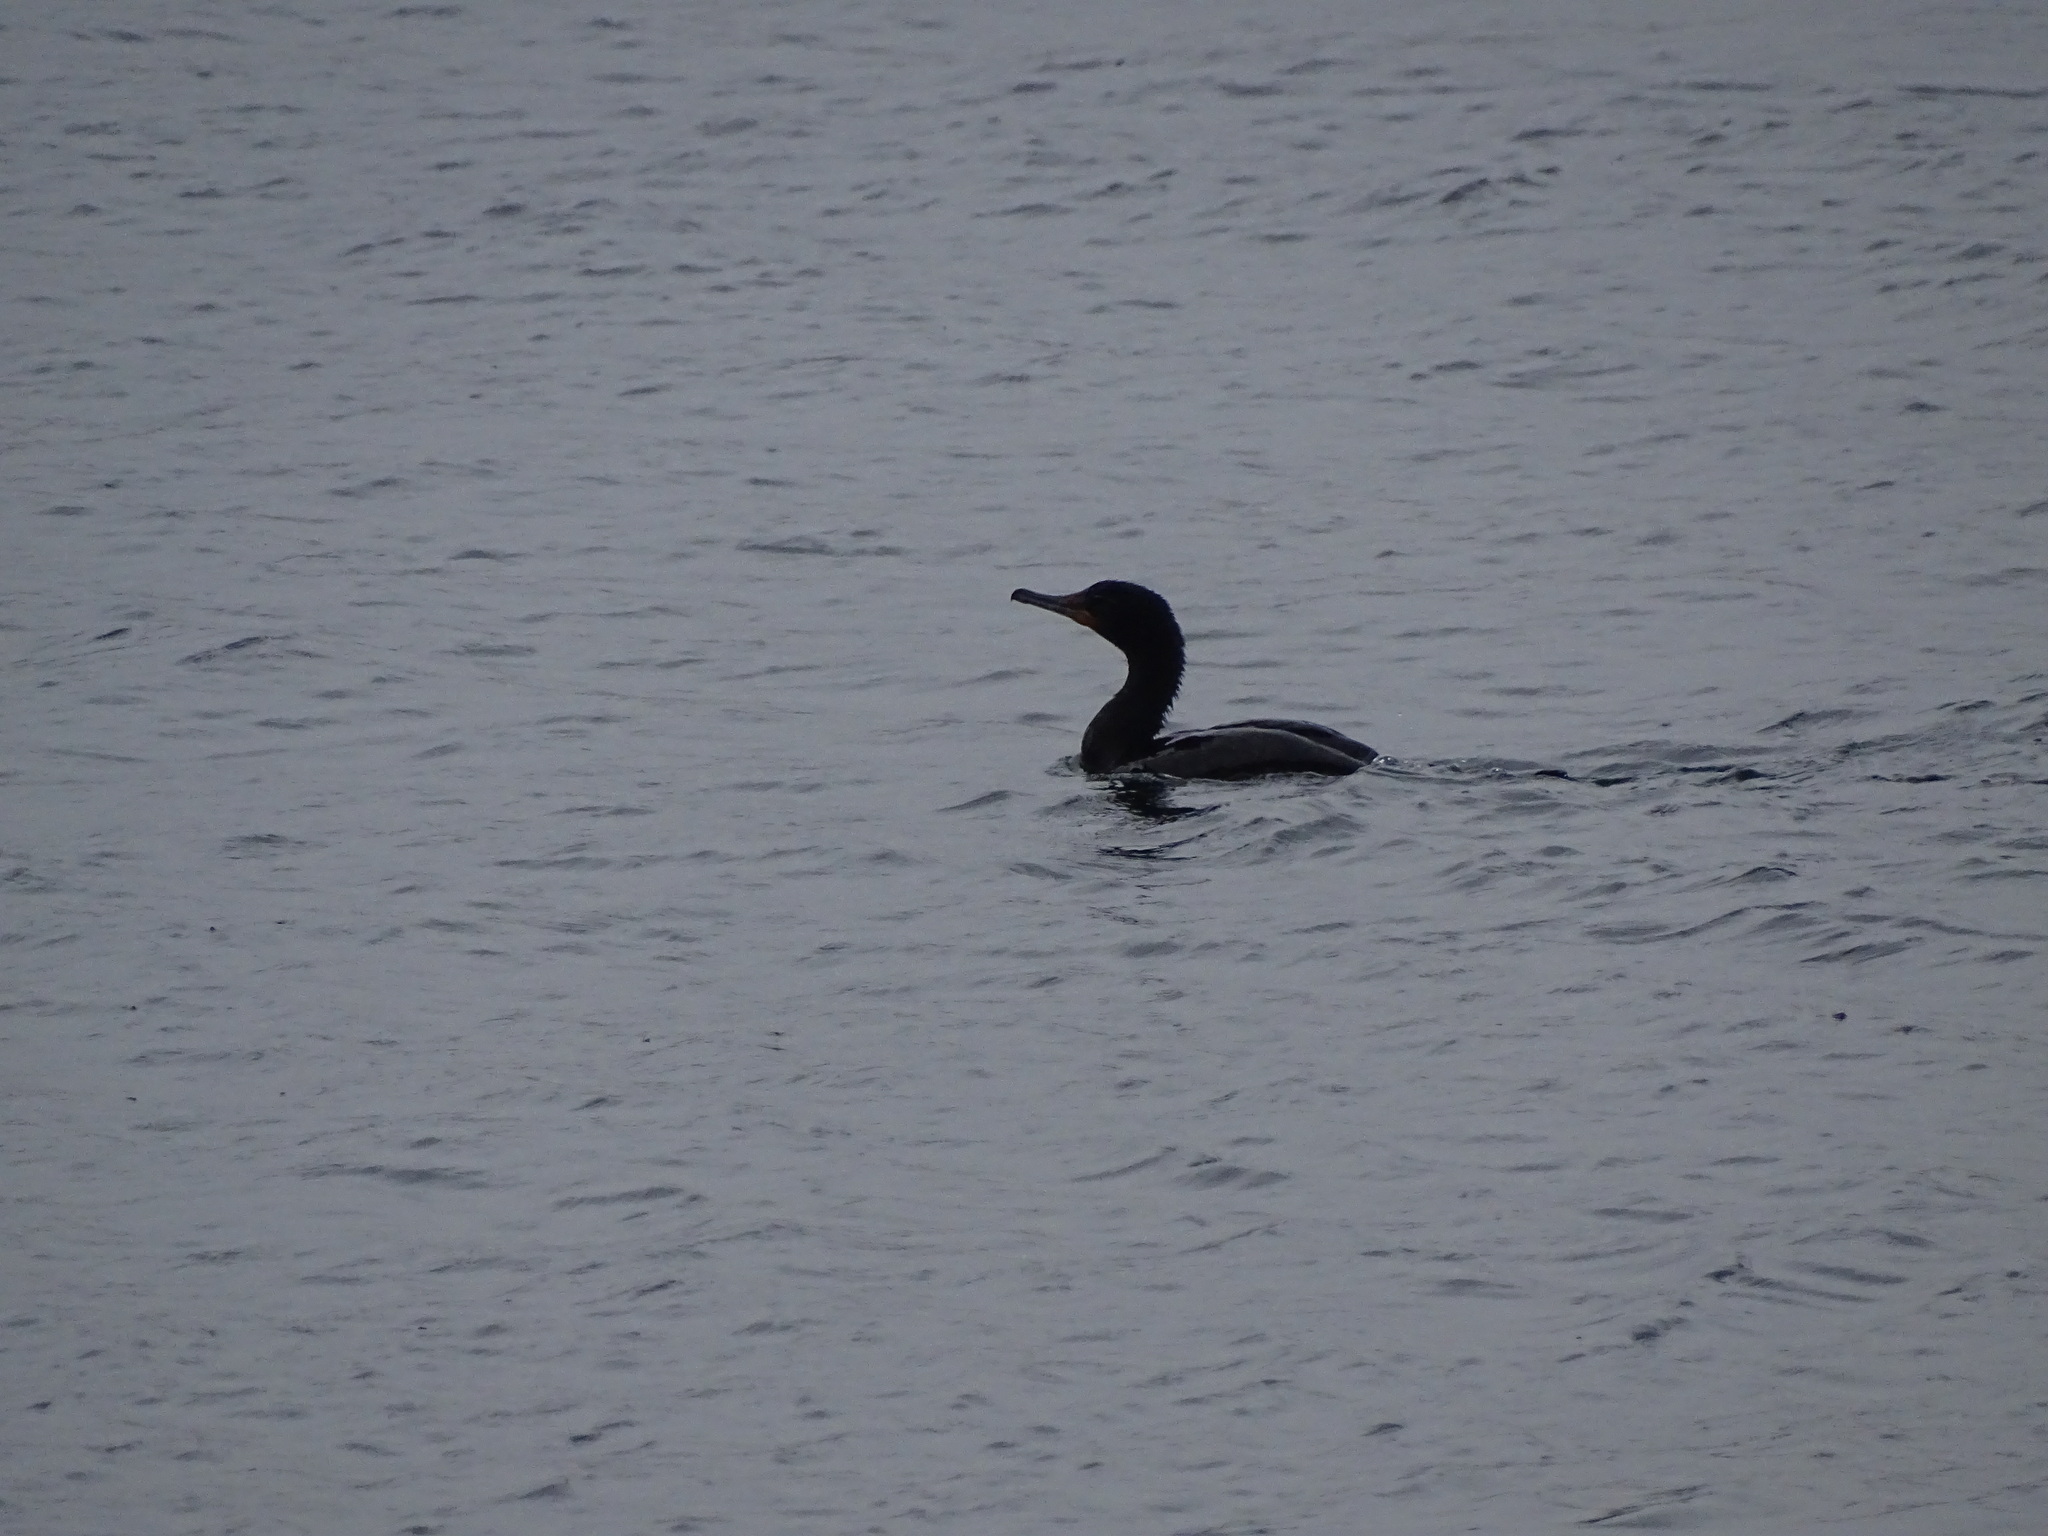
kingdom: Animalia
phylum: Chordata
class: Aves
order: Suliformes
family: Phalacrocoracidae
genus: Phalacrocorax
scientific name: Phalacrocorax auritus
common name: Double-crested cormorant
